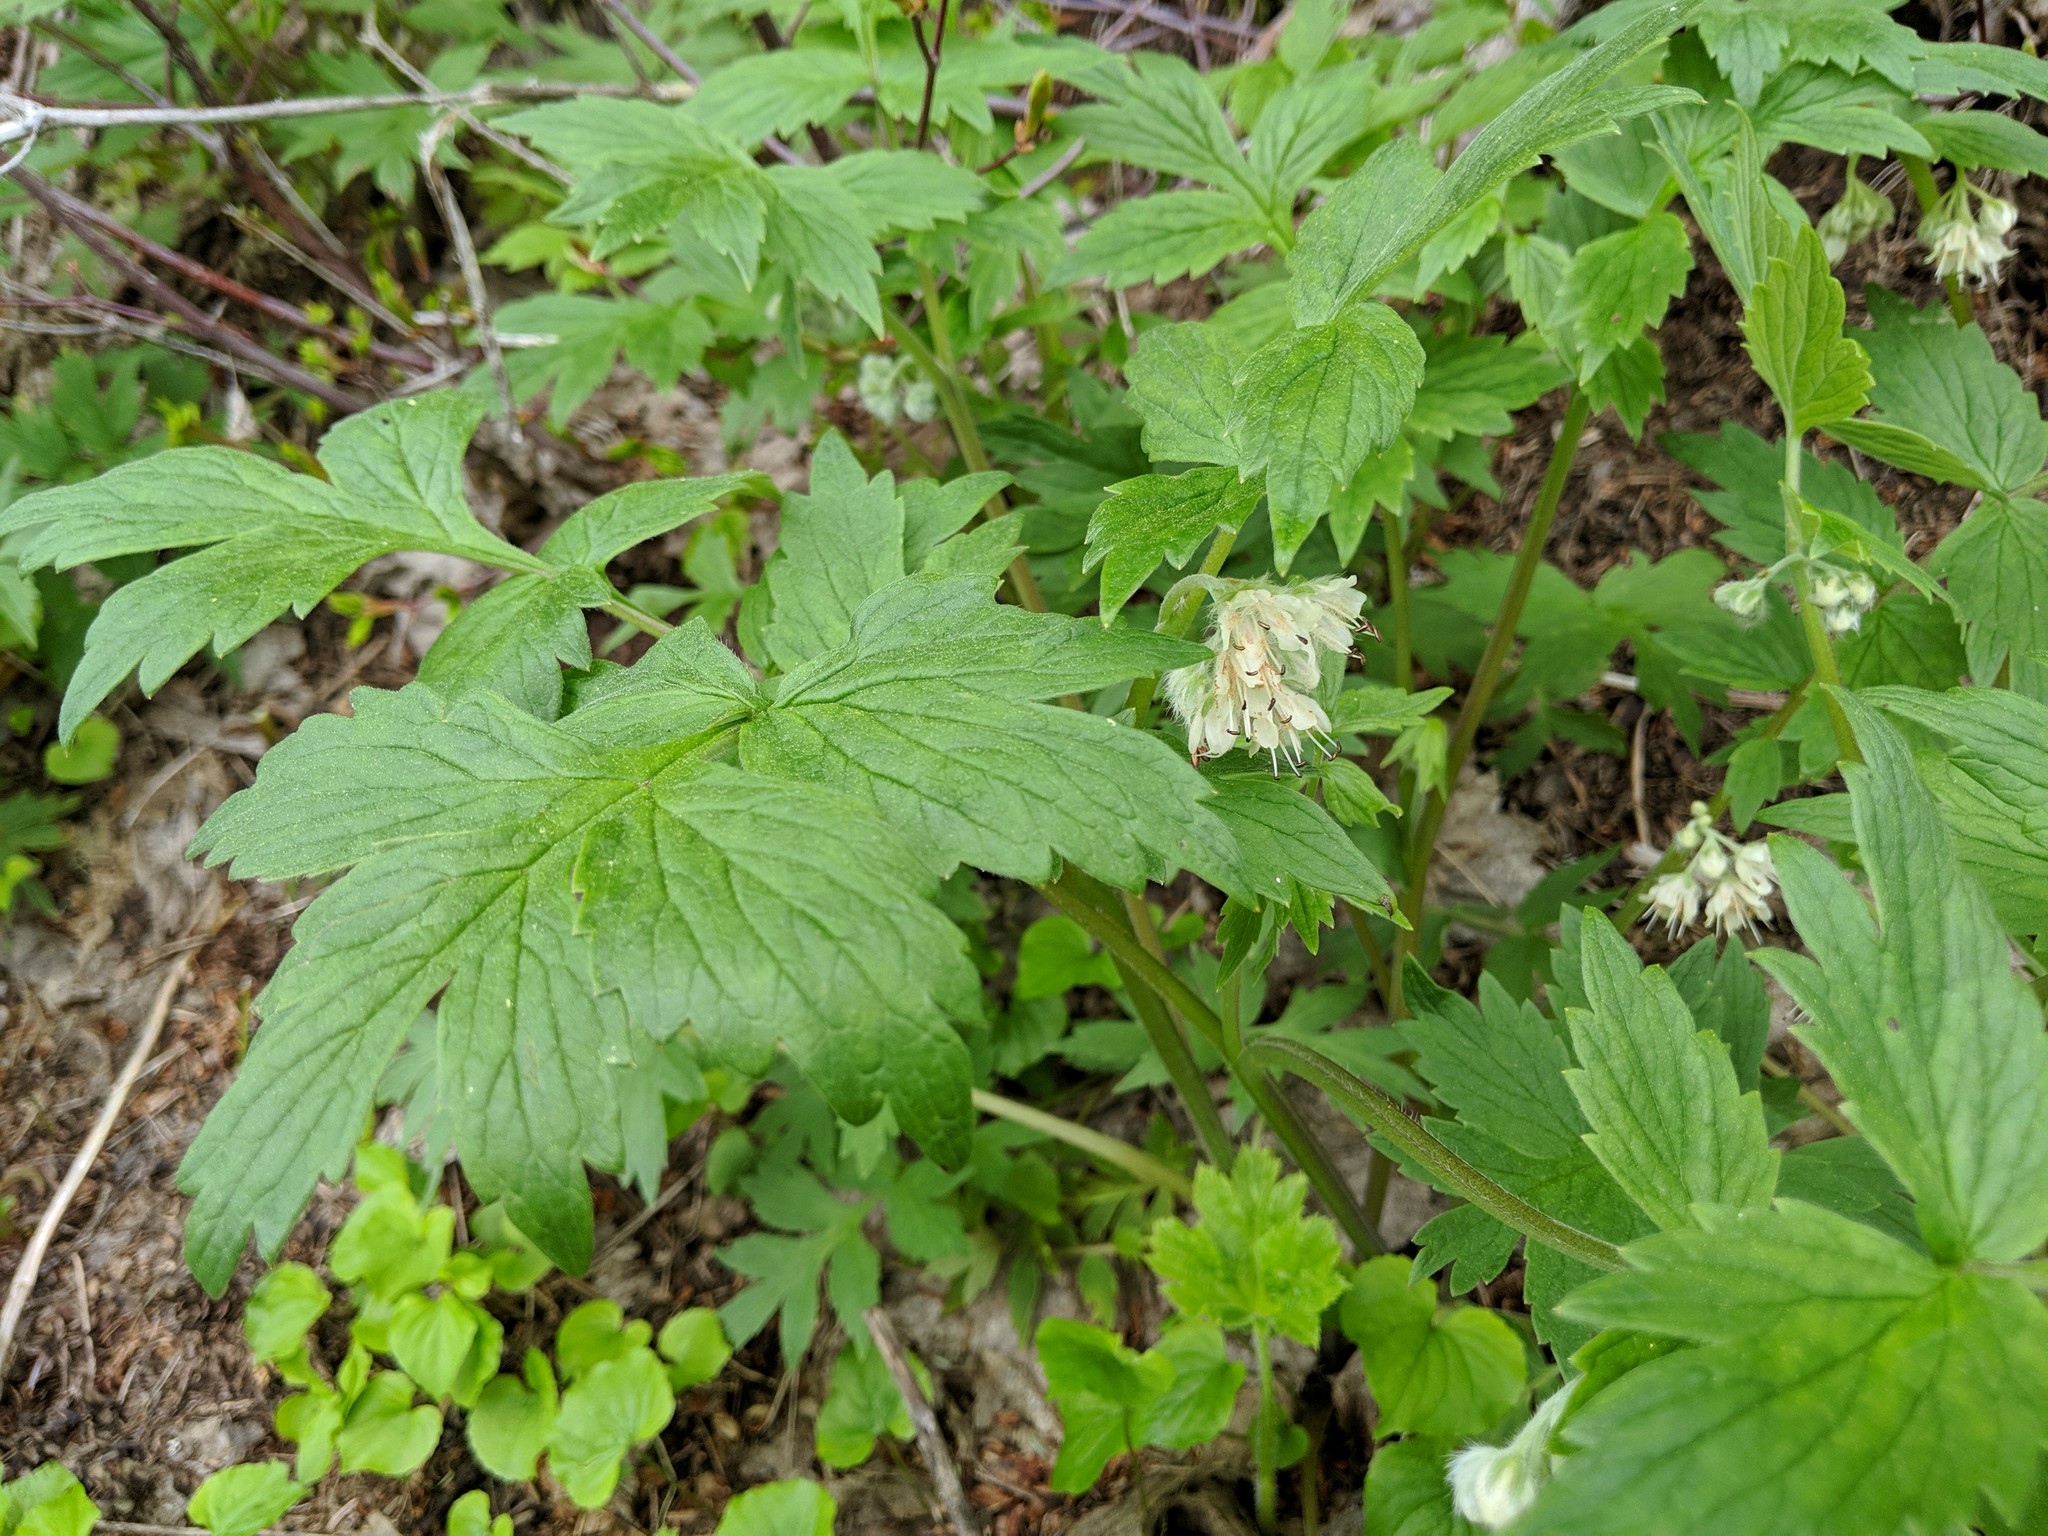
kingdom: Plantae
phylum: Tracheophyta
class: Magnoliopsida
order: Boraginales
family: Hydrophyllaceae
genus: Hydrophyllum
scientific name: Hydrophyllum fendleri
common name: Fendler's waterleaf
